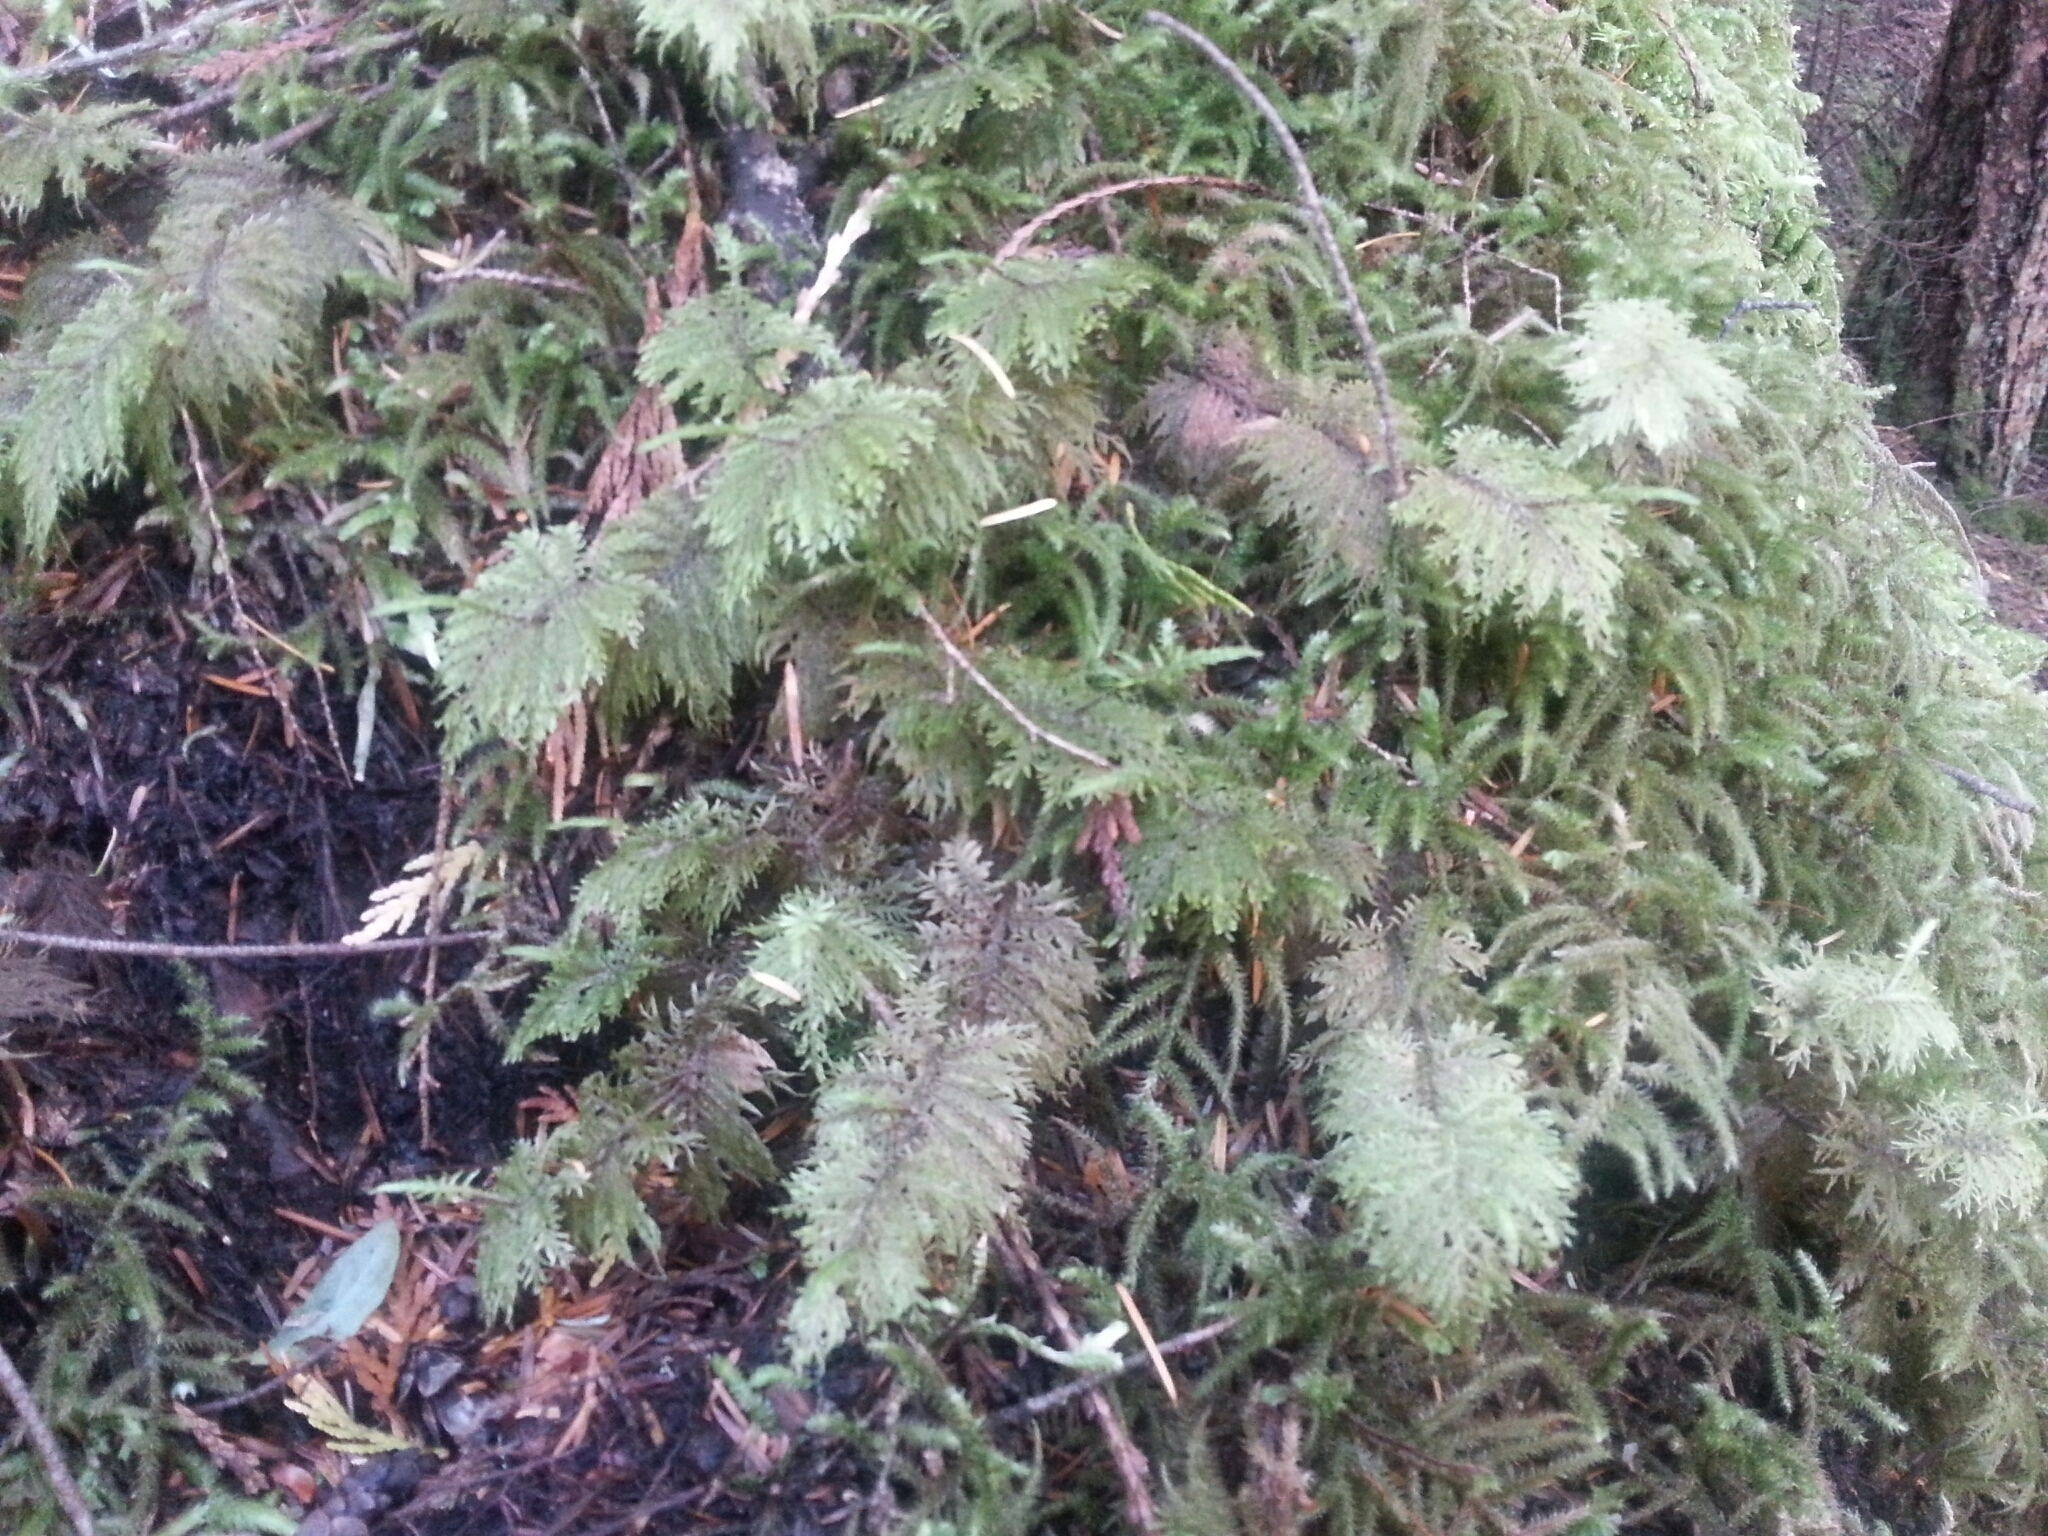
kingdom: Plantae
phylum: Bryophyta
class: Bryopsida
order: Hypnales
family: Hylocomiaceae
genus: Hylocomium
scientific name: Hylocomium splendens
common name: Stairstep moss
